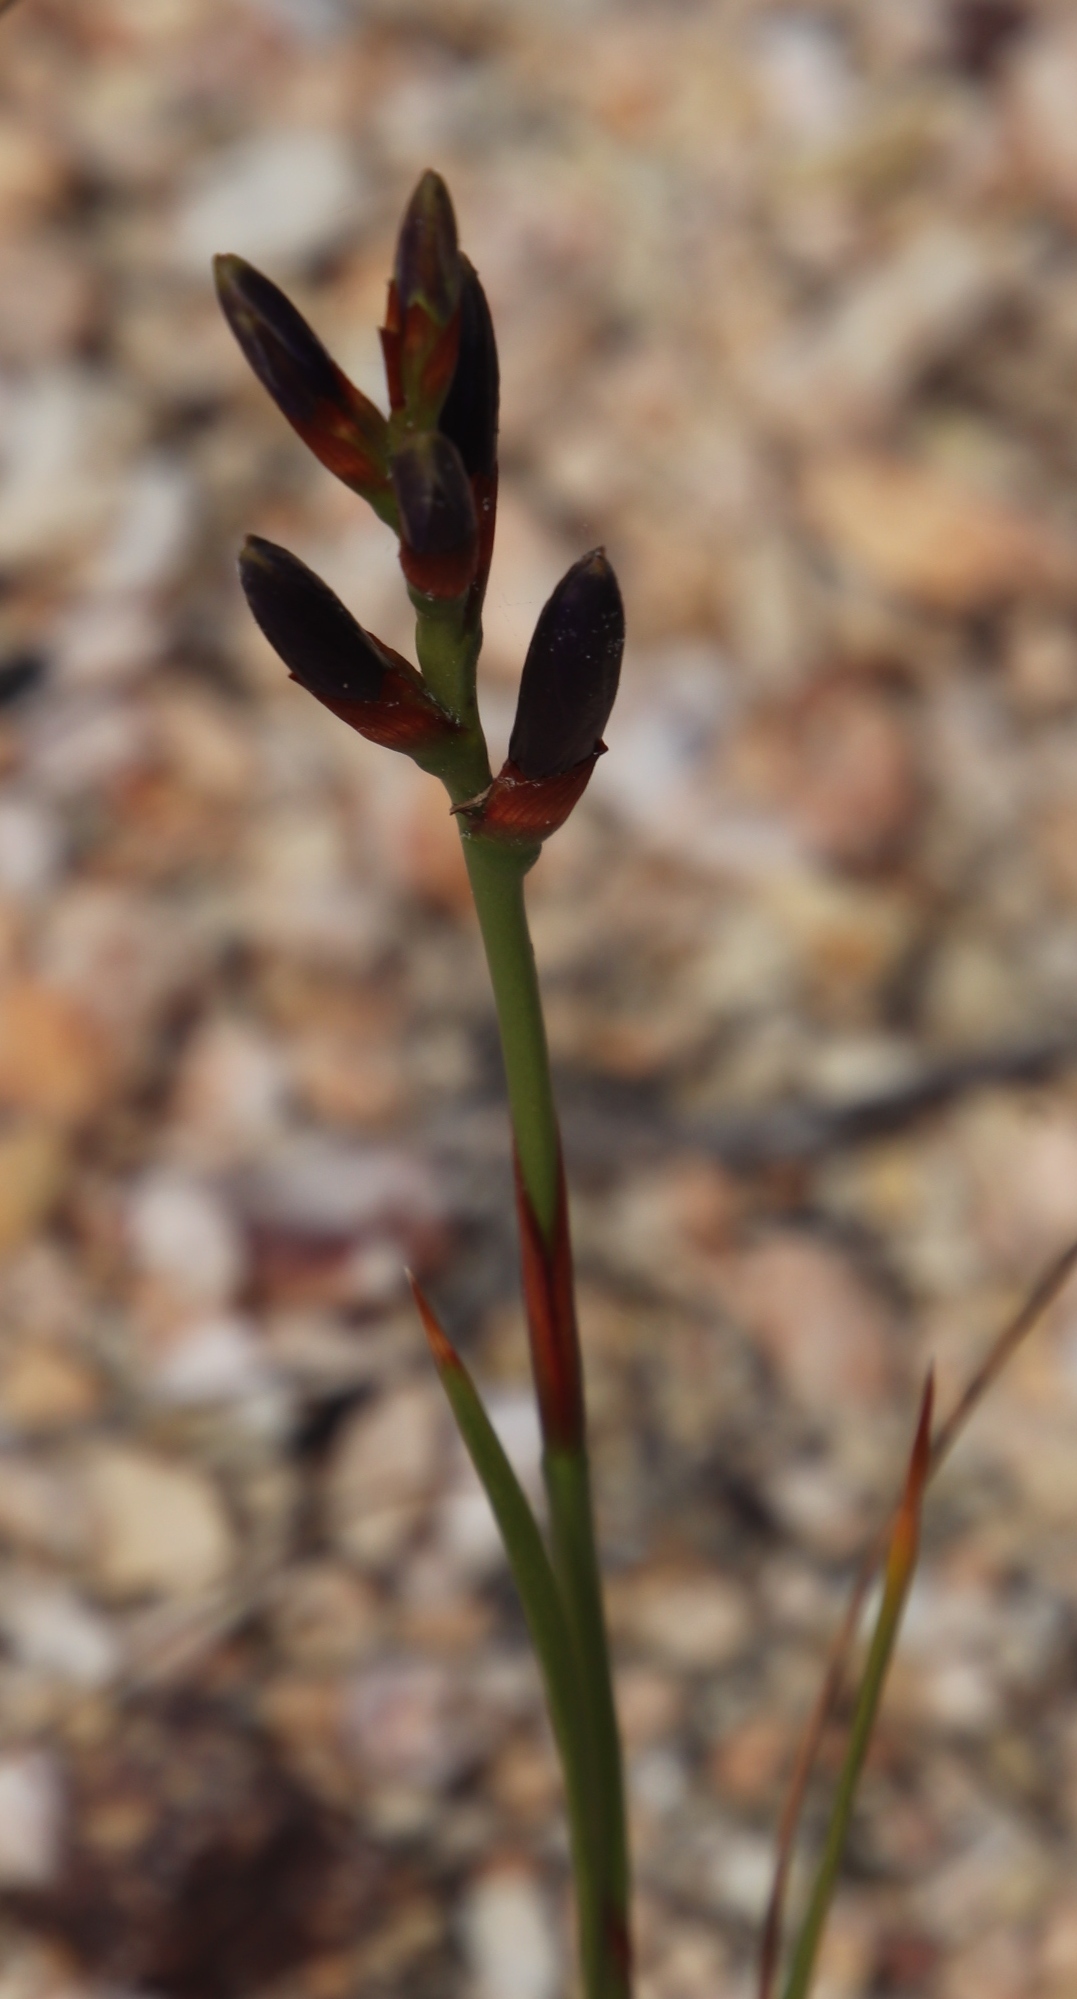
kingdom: Plantae
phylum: Tracheophyta
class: Liliopsida
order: Asparagales
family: Iridaceae
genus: Thereianthus
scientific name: Thereianthus bracteolatus
